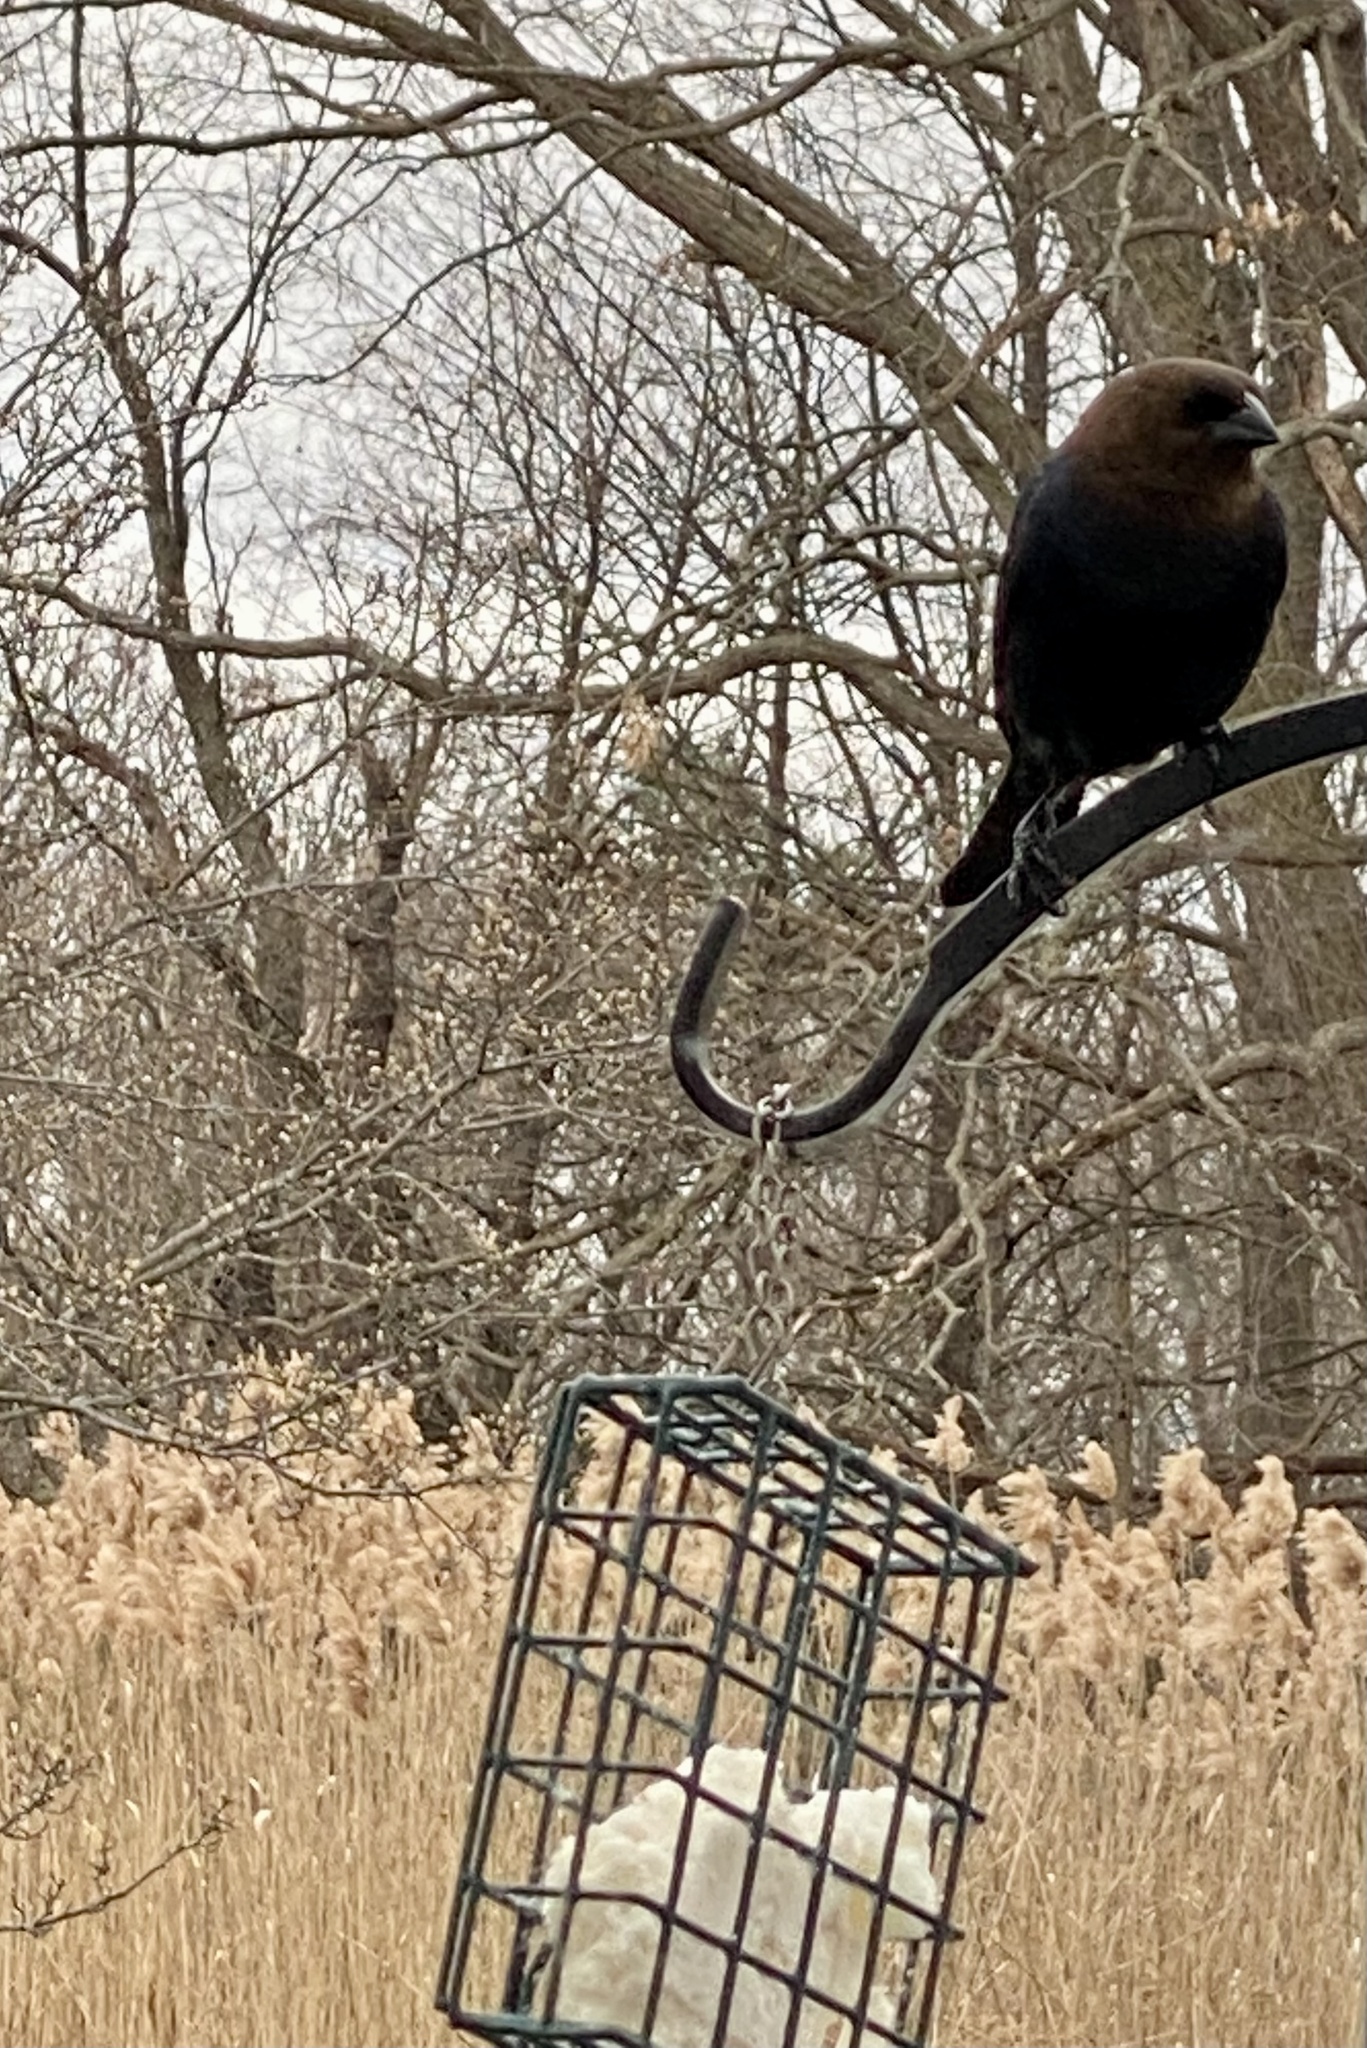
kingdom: Animalia
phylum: Chordata
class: Aves
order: Passeriformes
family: Icteridae
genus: Molothrus
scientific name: Molothrus ater
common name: Brown-headed cowbird
